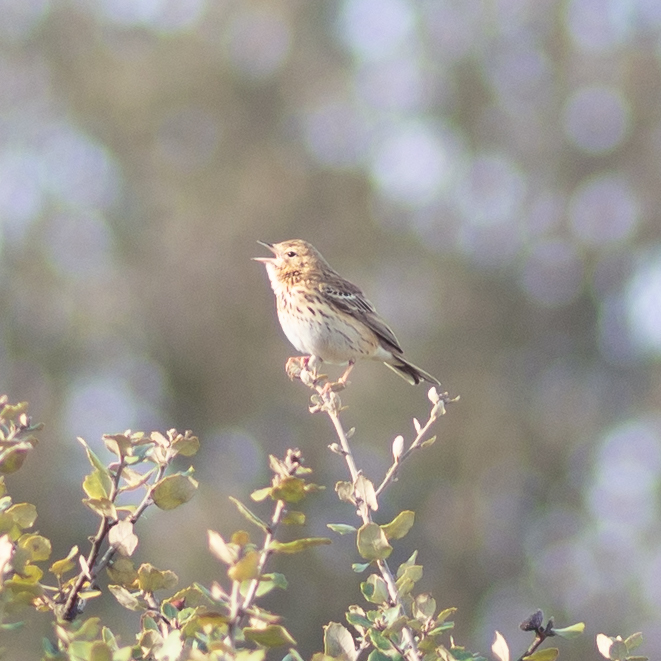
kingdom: Animalia
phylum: Chordata
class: Aves
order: Passeriformes
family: Motacillidae
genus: Anthus
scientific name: Anthus trivialis
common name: Tree pipit
